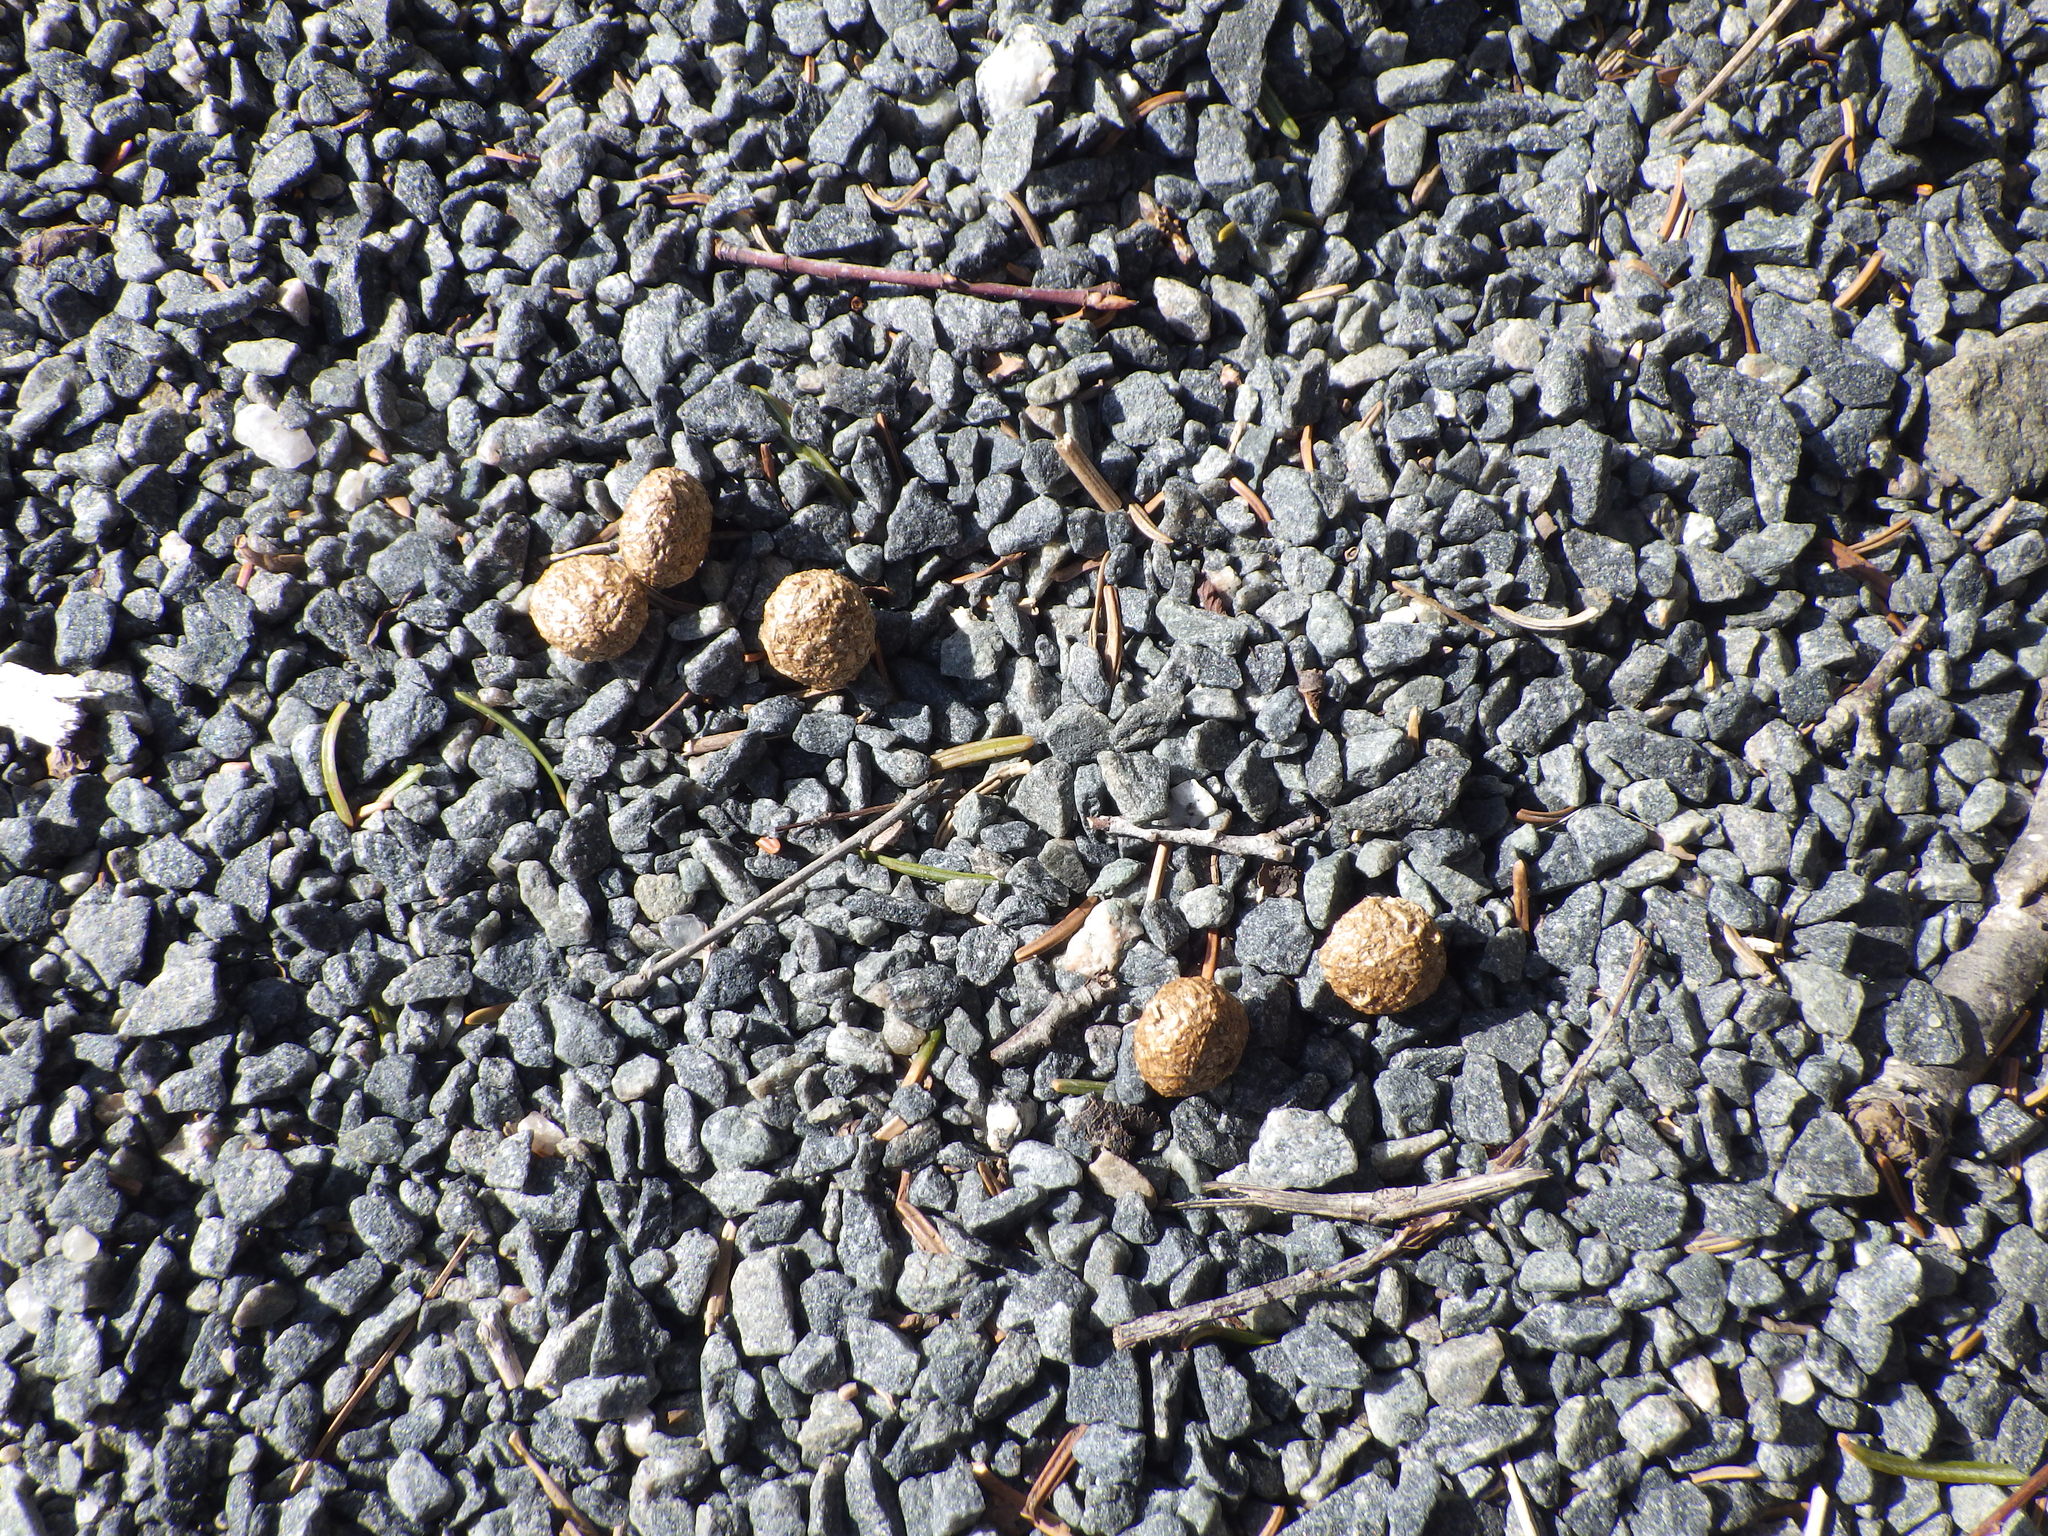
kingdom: Animalia
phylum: Chordata
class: Mammalia
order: Lagomorpha
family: Leporidae
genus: Lepus
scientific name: Lepus americanus
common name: Snowshoe hare
